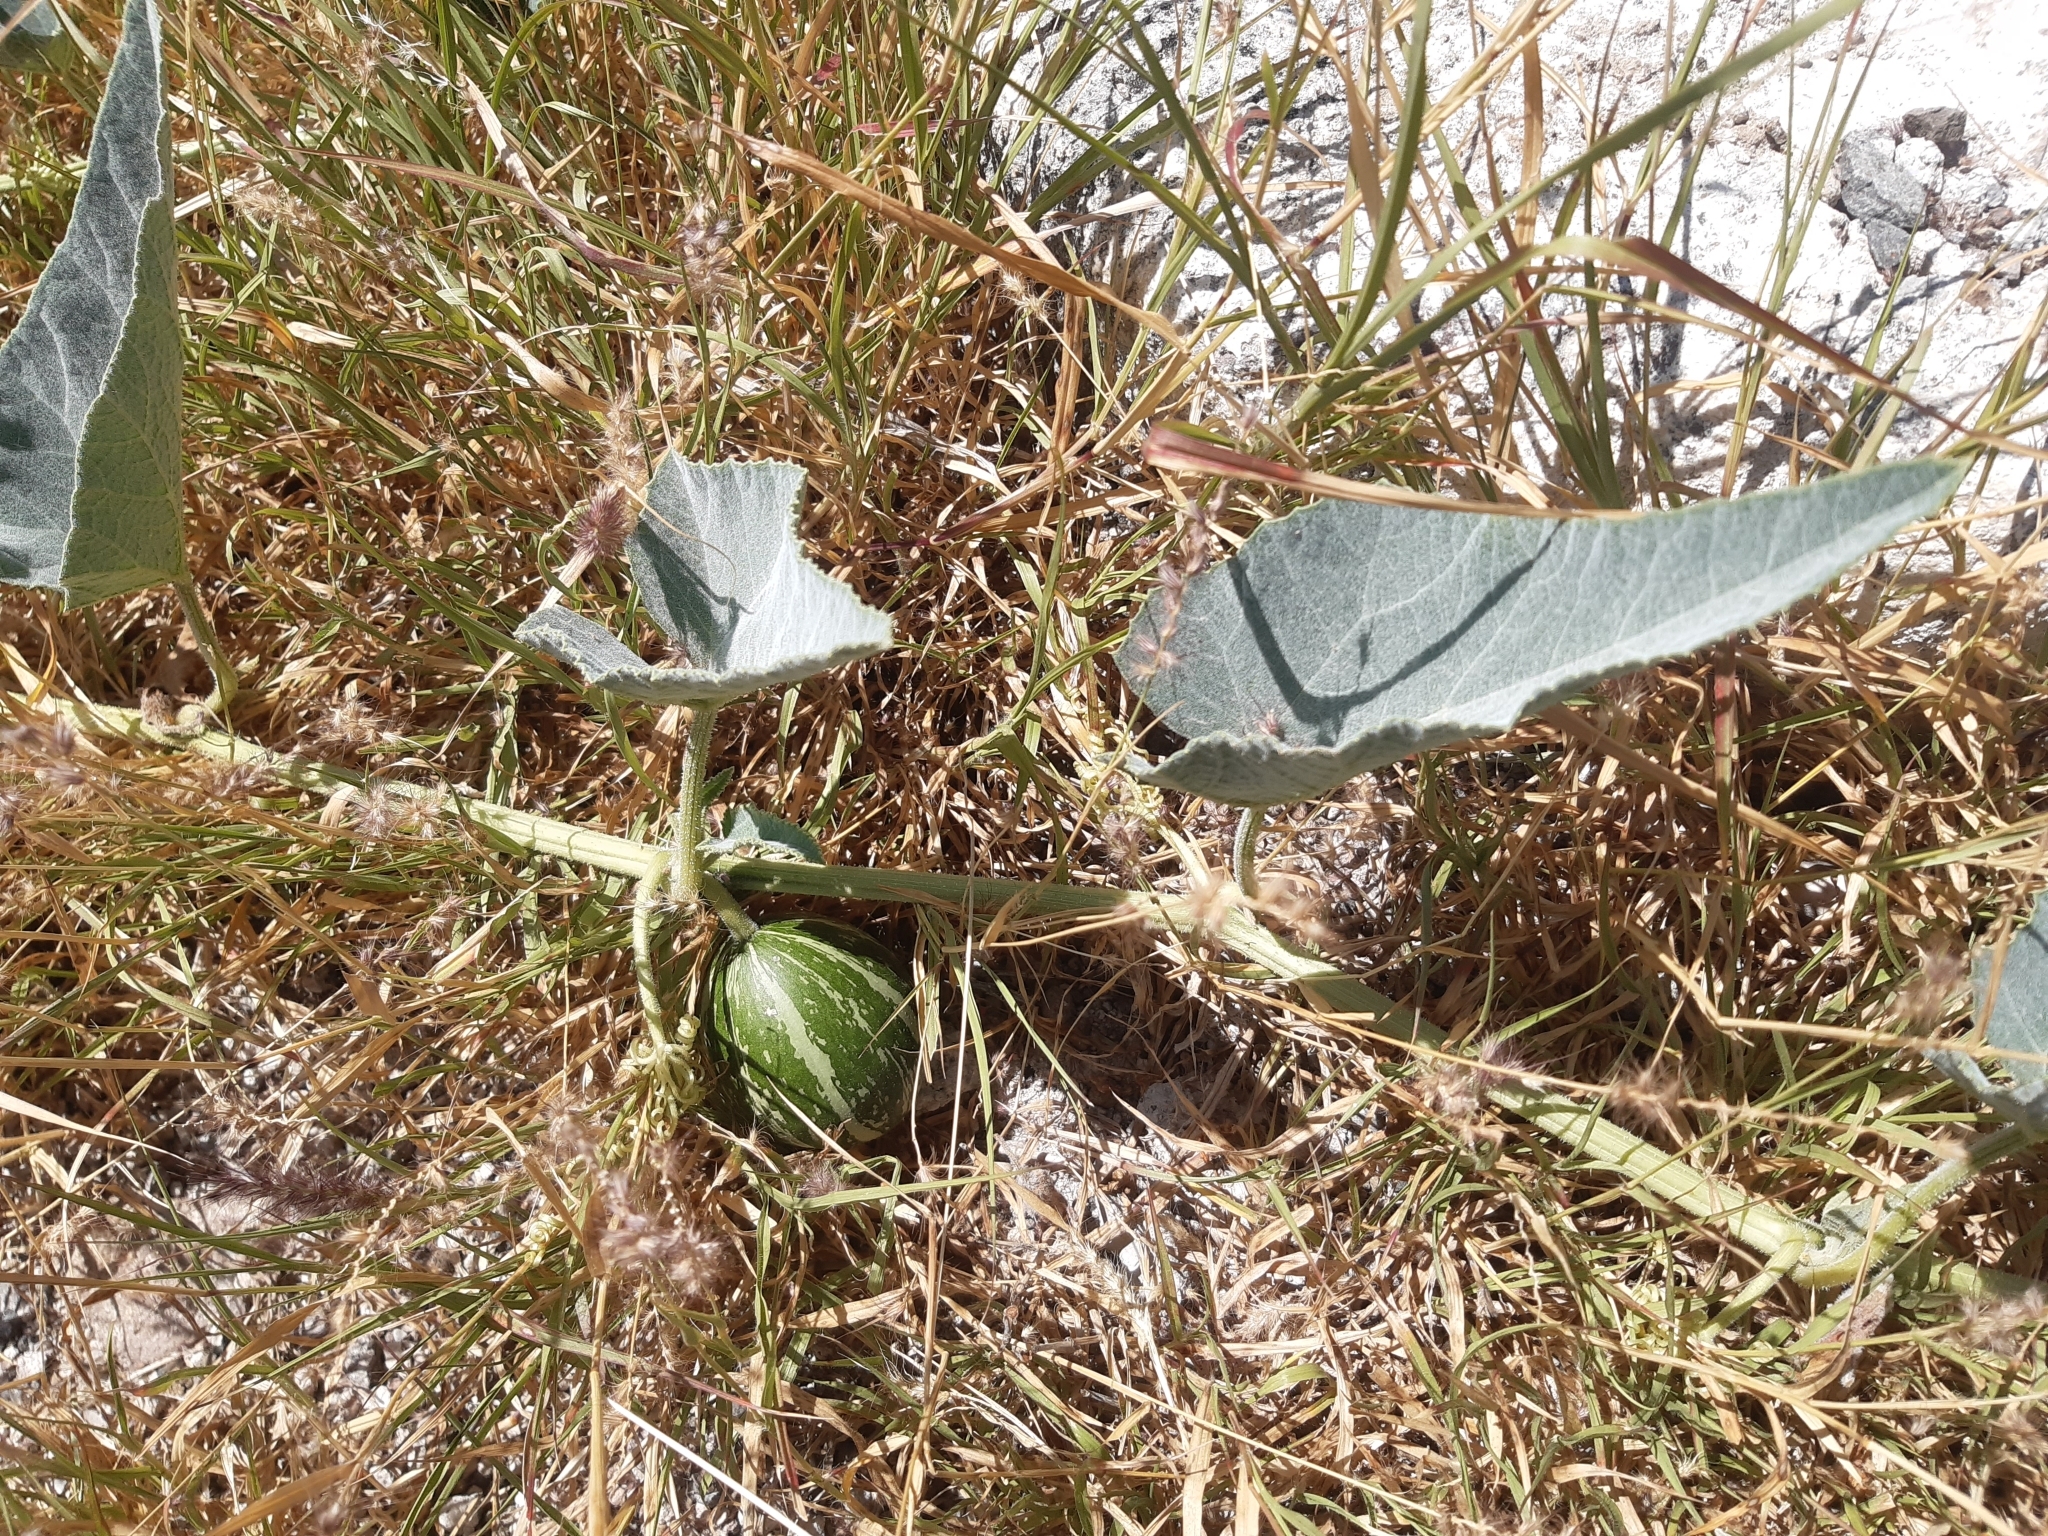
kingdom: Plantae
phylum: Tracheophyta
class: Magnoliopsida
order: Cucurbitales
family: Cucurbitaceae
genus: Cucurbita
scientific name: Cucurbita foetidissima
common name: Buffalo gourd
